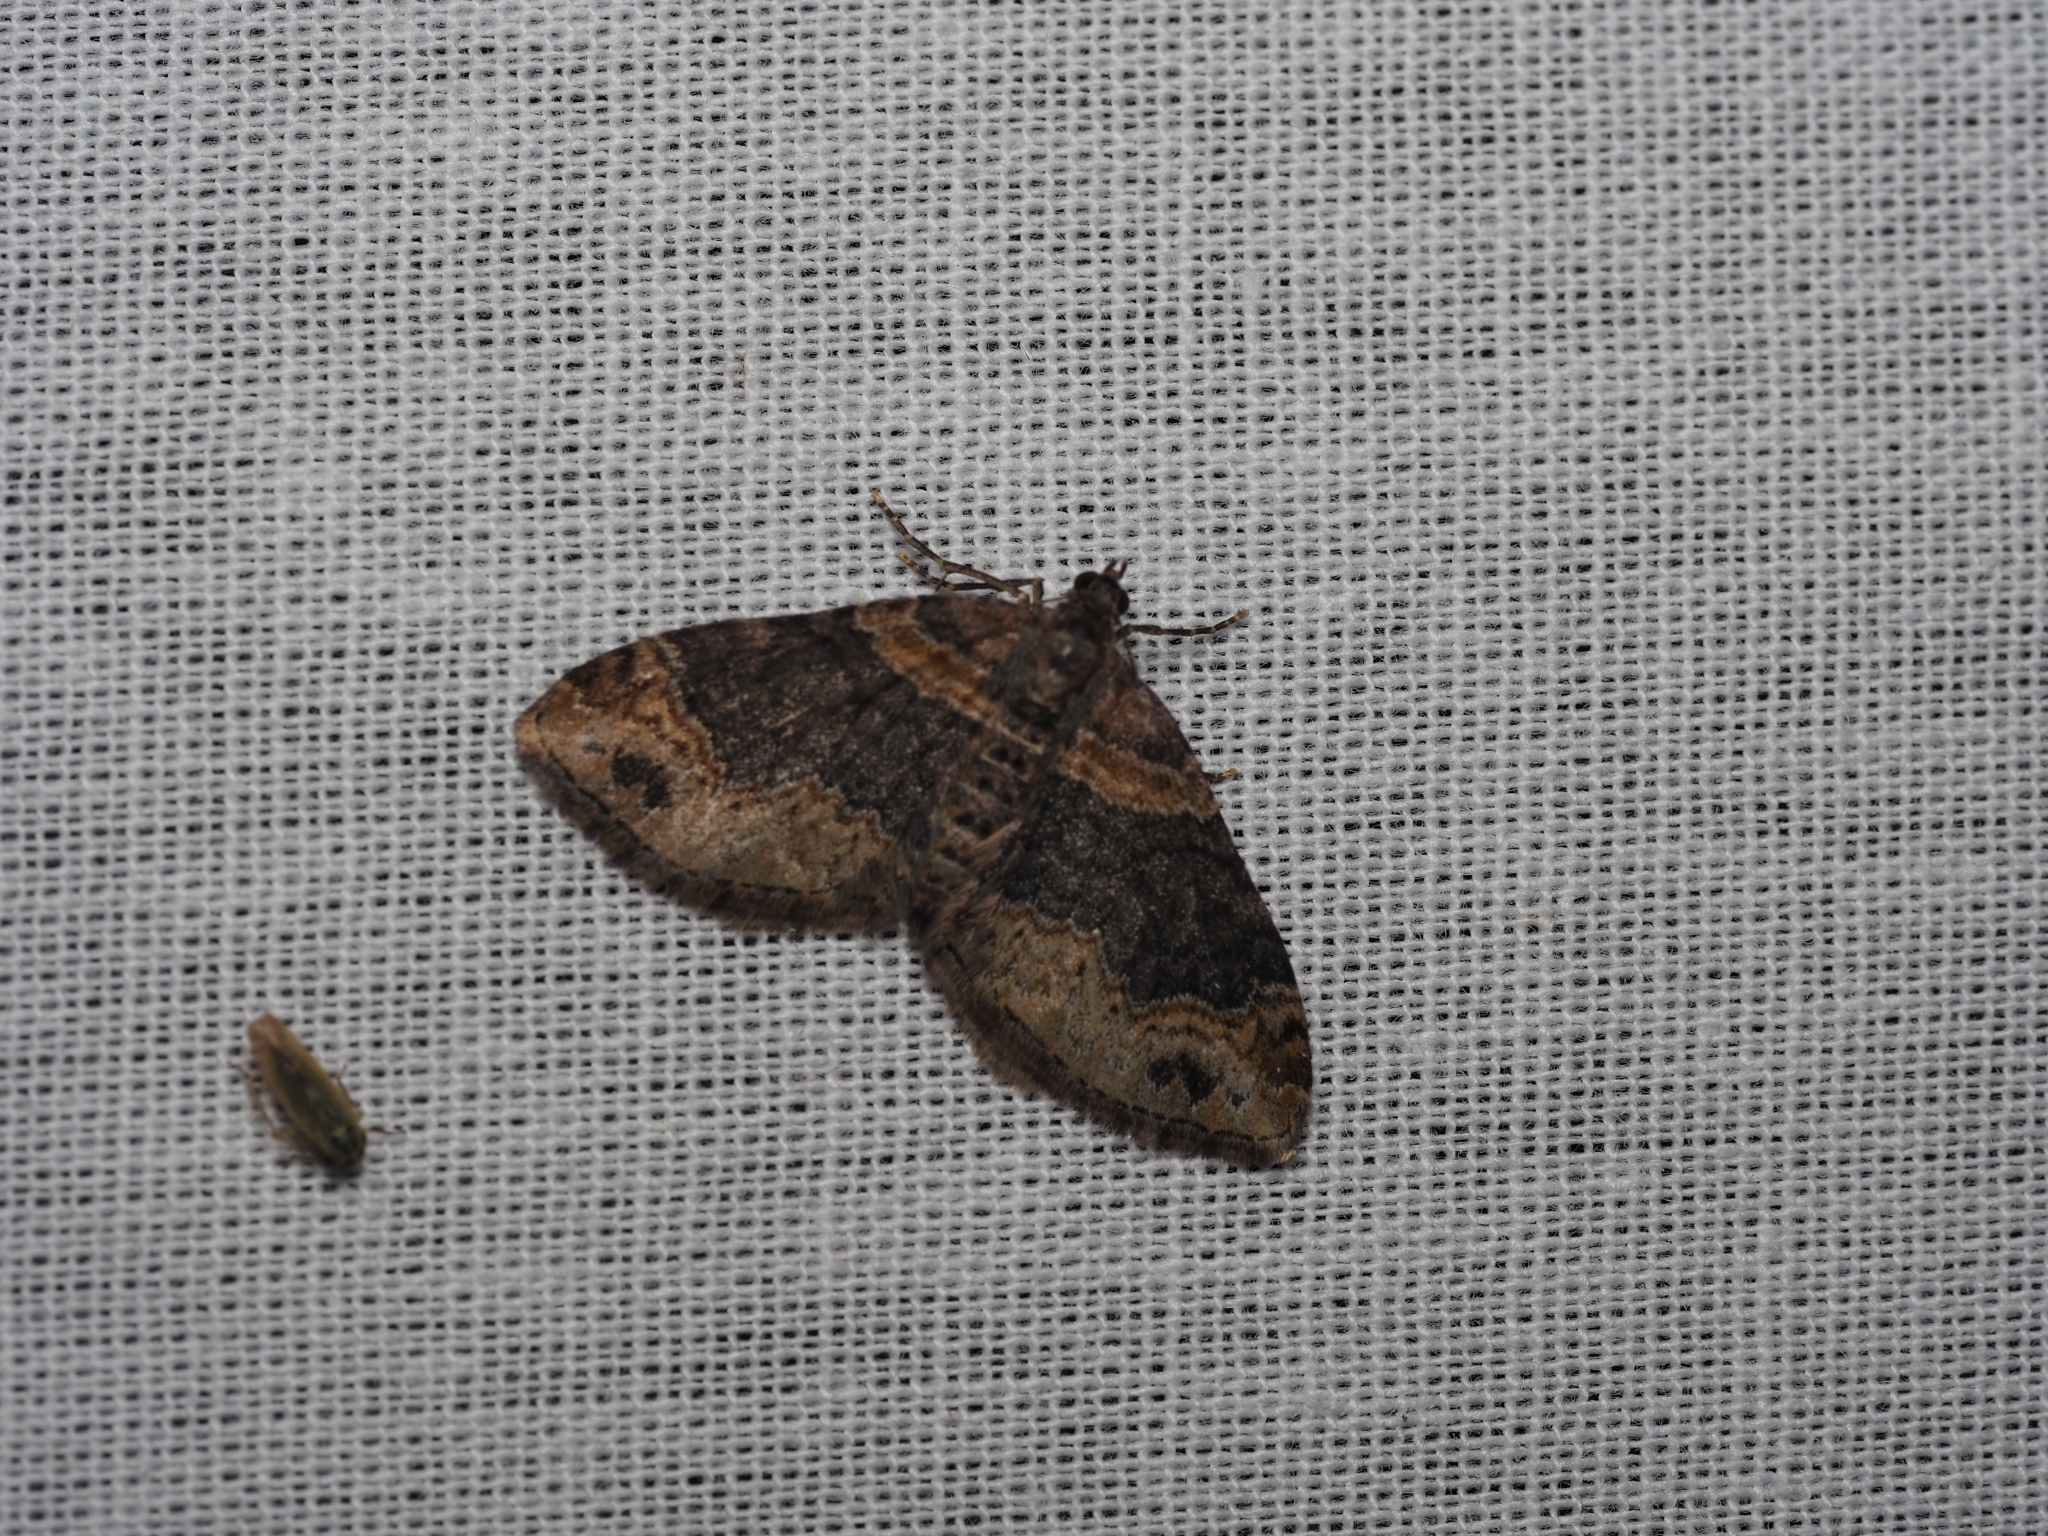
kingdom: Animalia
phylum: Arthropoda
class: Insecta
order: Lepidoptera
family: Geometridae
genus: Xanthorhoe
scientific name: Xanthorhoe ferrugata
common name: Dark-barred twin-spot carpet
